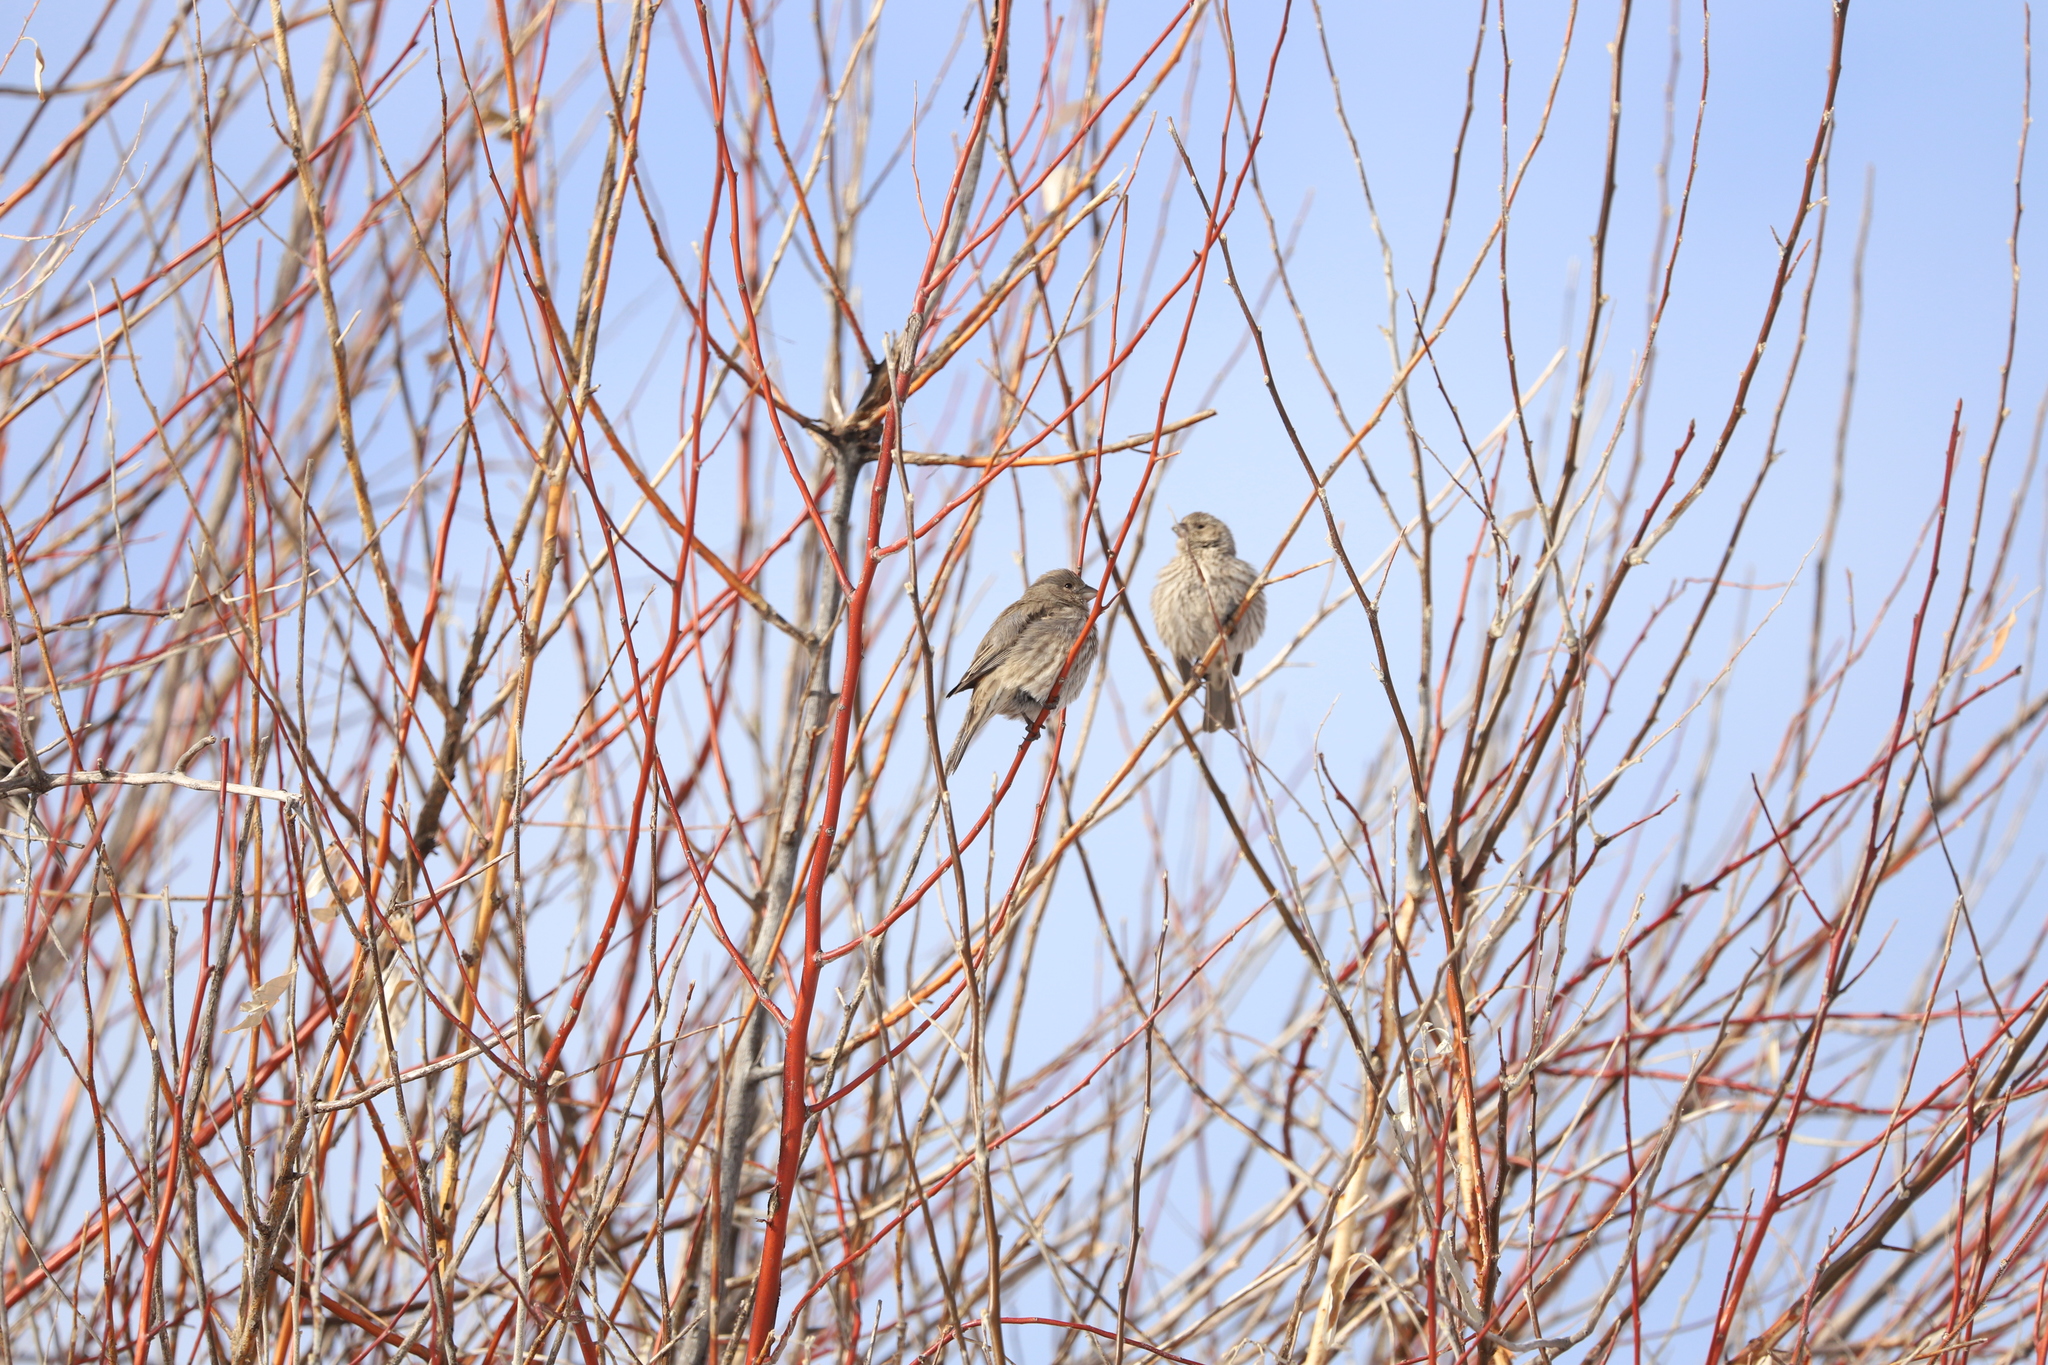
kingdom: Animalia
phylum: Chordata
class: Aves
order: Passeriformes
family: Fringillidae
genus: Haemorhous
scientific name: Haemorhous mexicanus
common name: House finch
